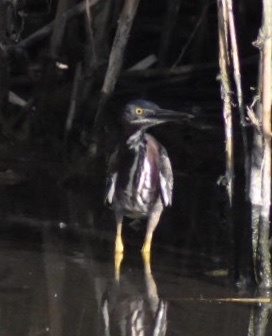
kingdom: Animalia
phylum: Chordata
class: Aves
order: Pelecaniformes
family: Ardeidae
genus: Butorides
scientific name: Butorides virescens
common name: Green heron
